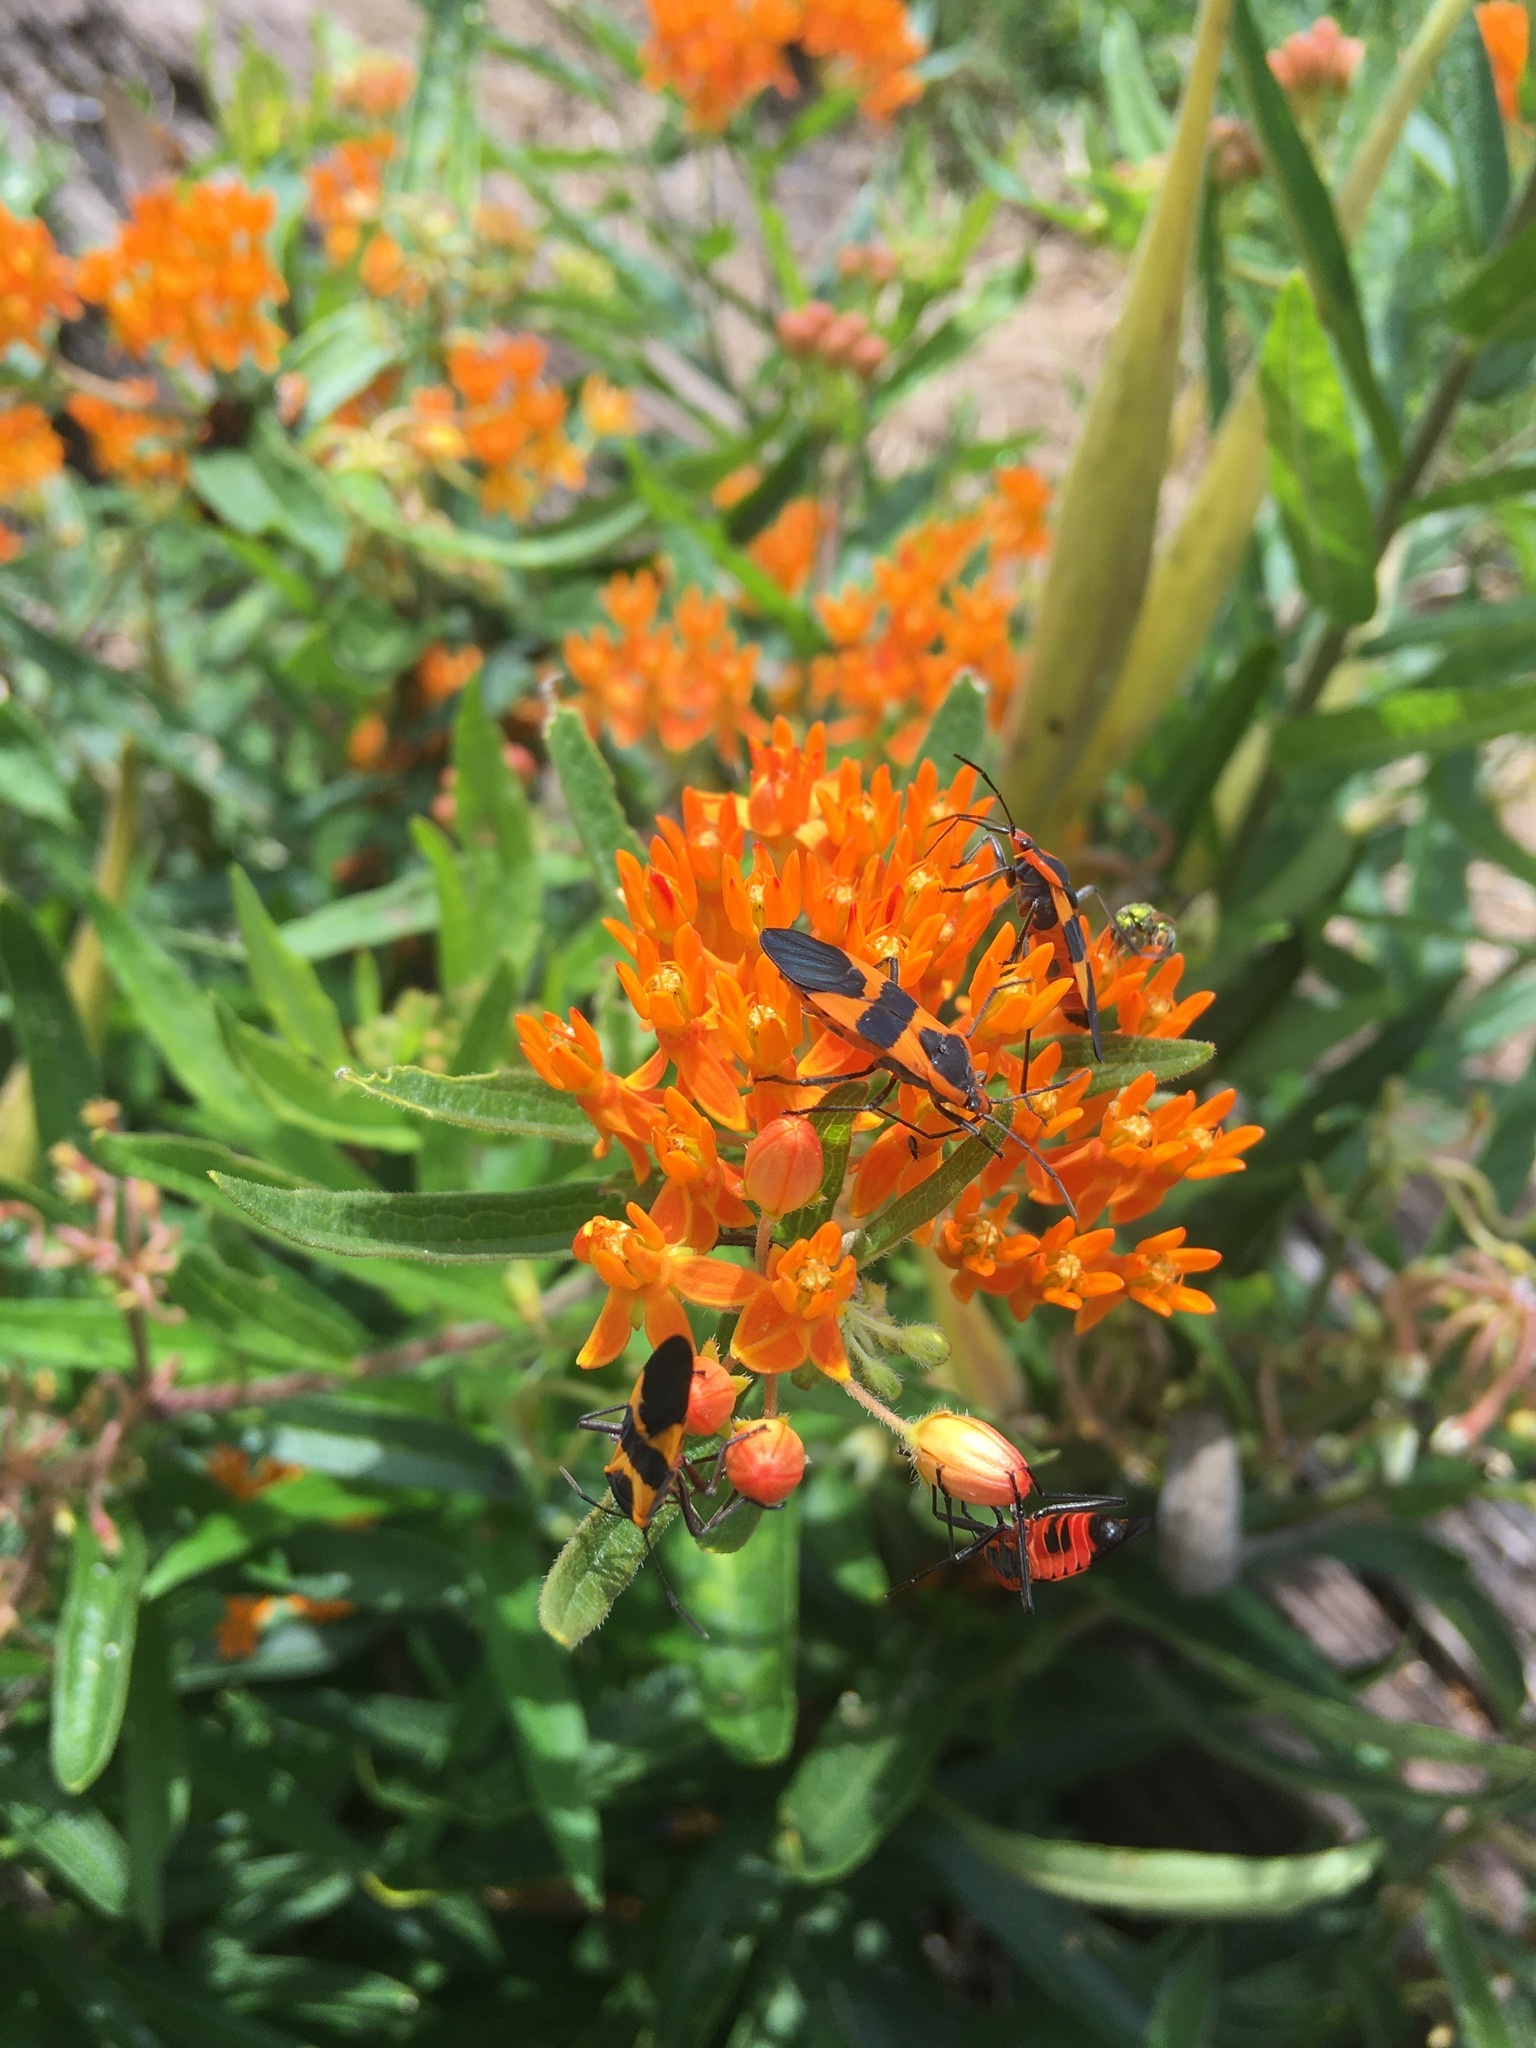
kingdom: Animalia
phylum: Arthropoda
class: Insecta
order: Hemiptera
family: Lygaeidae
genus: Oncopeltus
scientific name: Oncopeltus fasciatus
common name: Large milkweed bug
